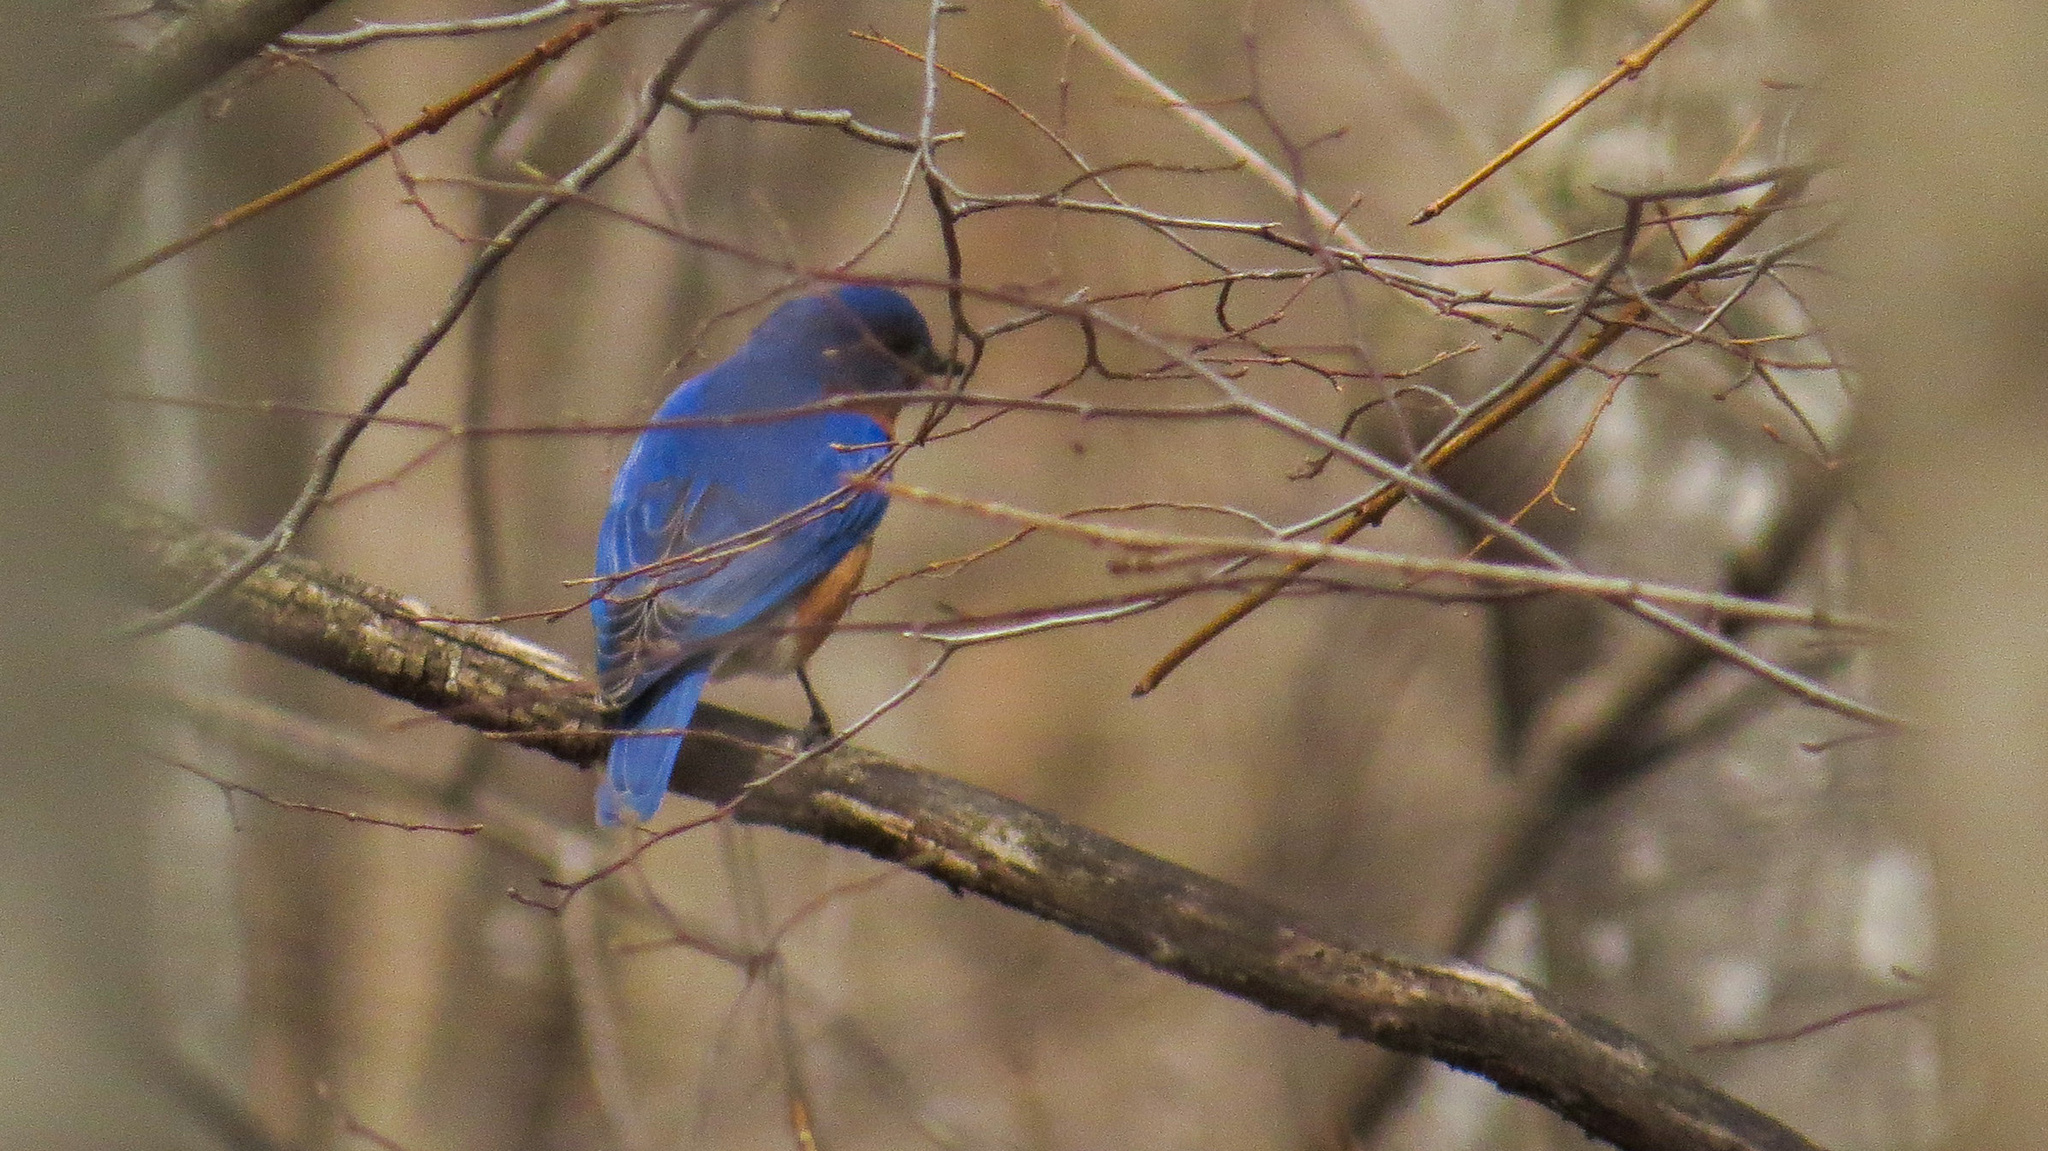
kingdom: Animalia
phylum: Chordata
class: Aves
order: Passeriformes
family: Turdidae
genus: Sialia
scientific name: Sialia sialis
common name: Eastern bluebird
